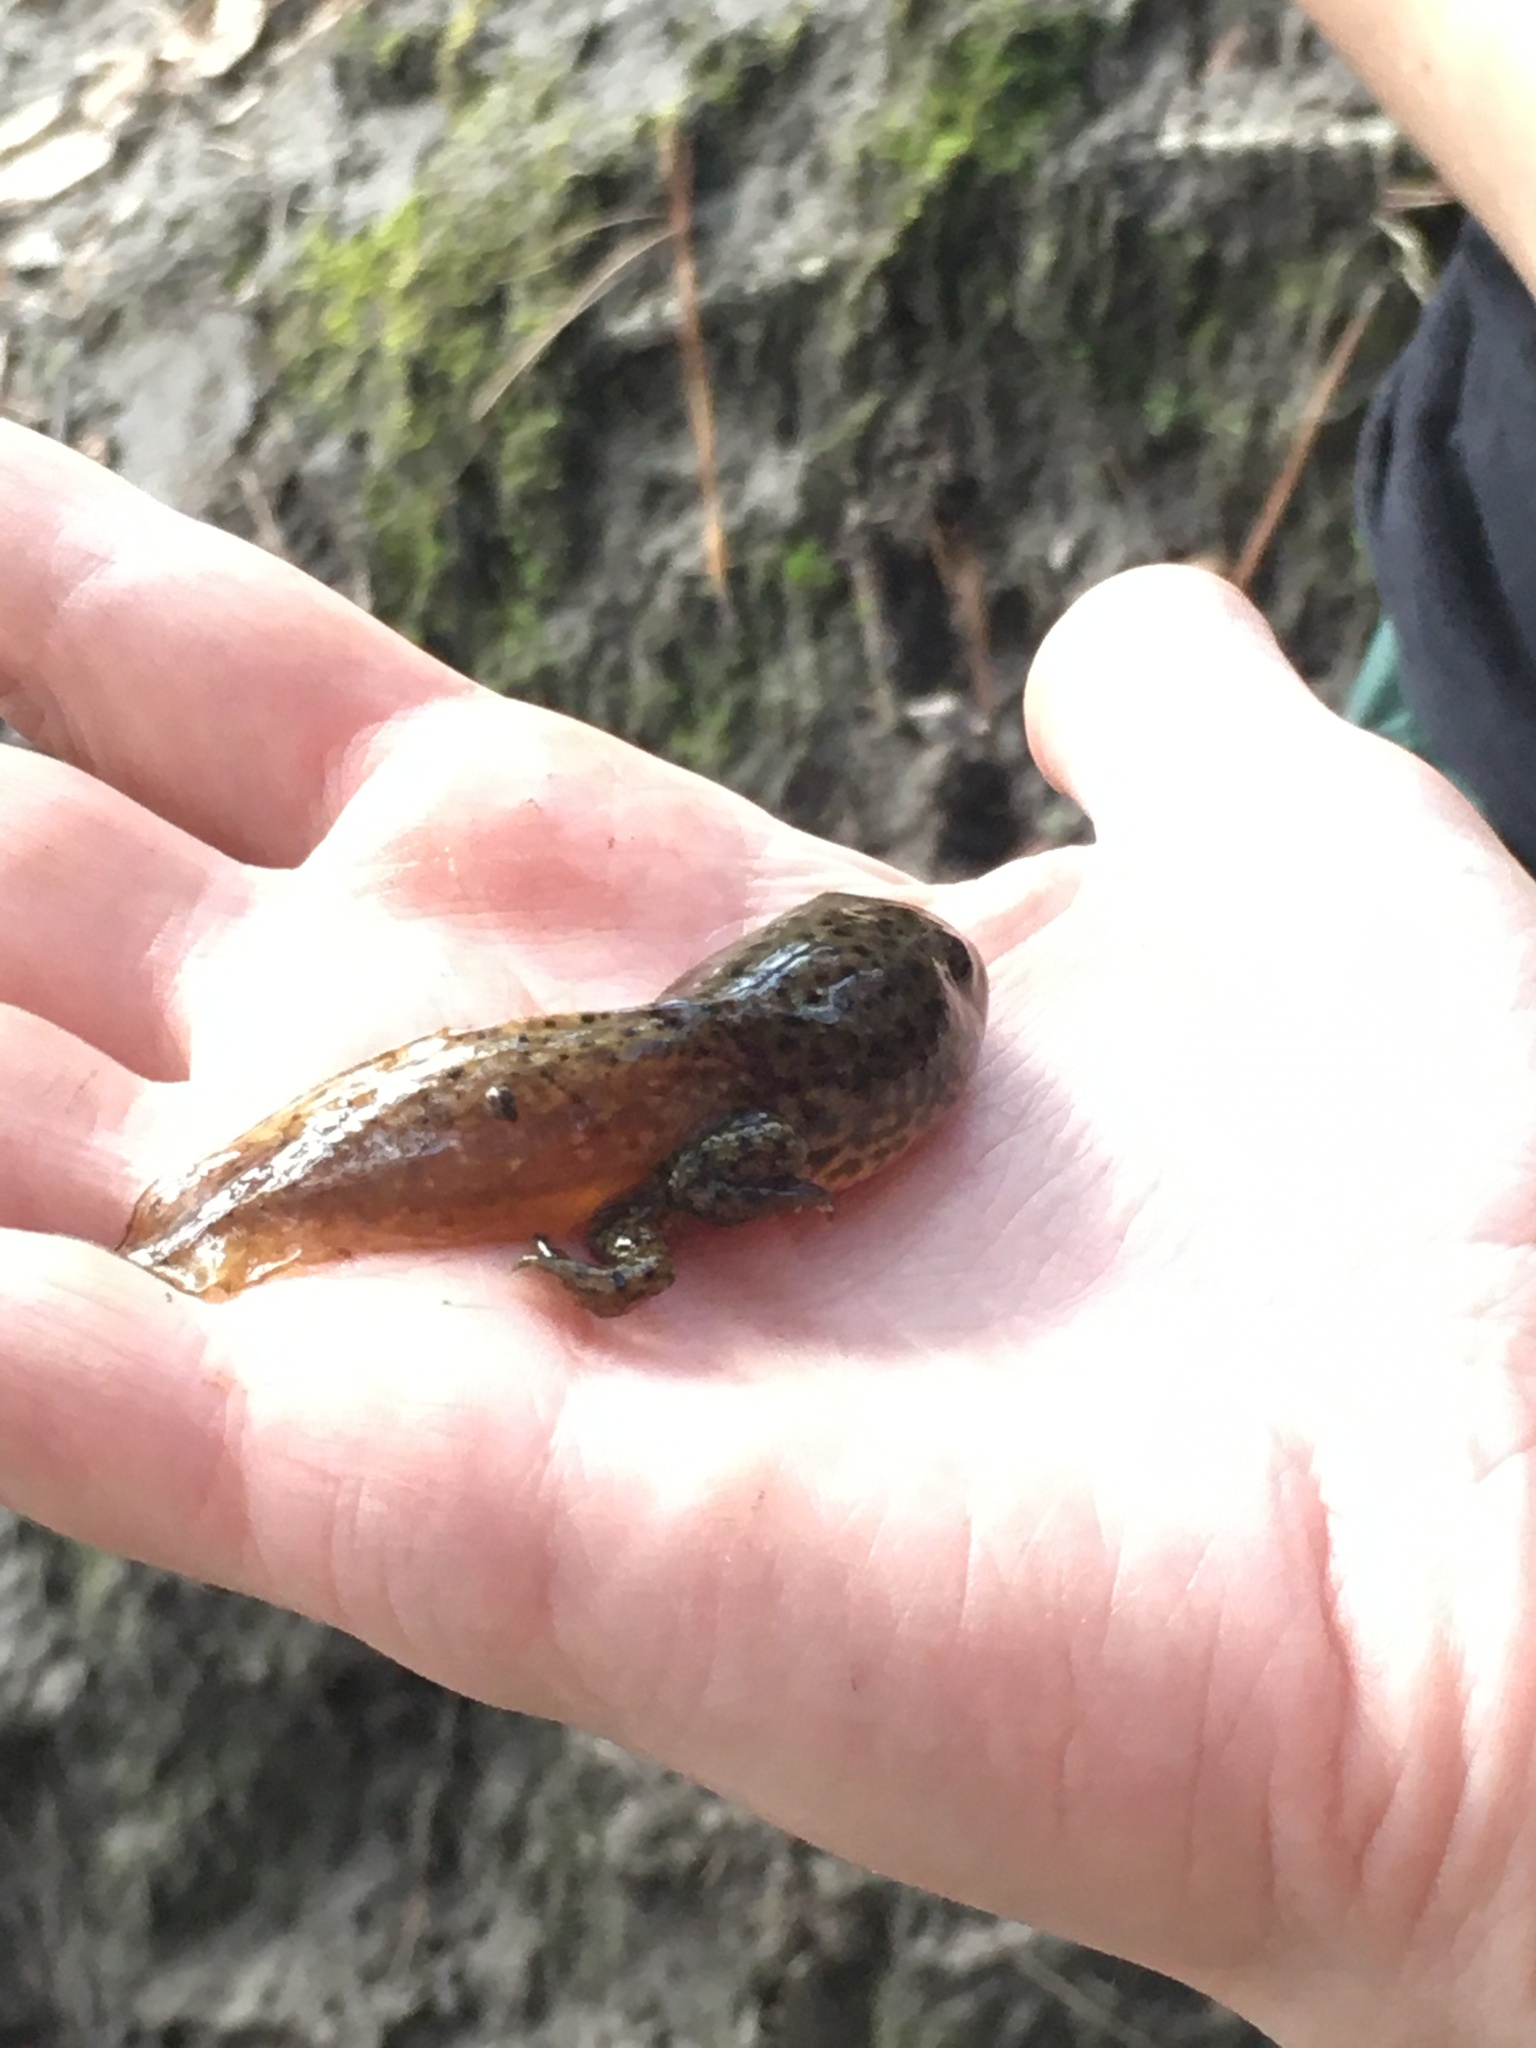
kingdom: Animalia
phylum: Chordata
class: Amphibia
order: Anura
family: Ranidae
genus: Lithobates
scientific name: Lithobates catesbeianus
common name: American bullfrog
